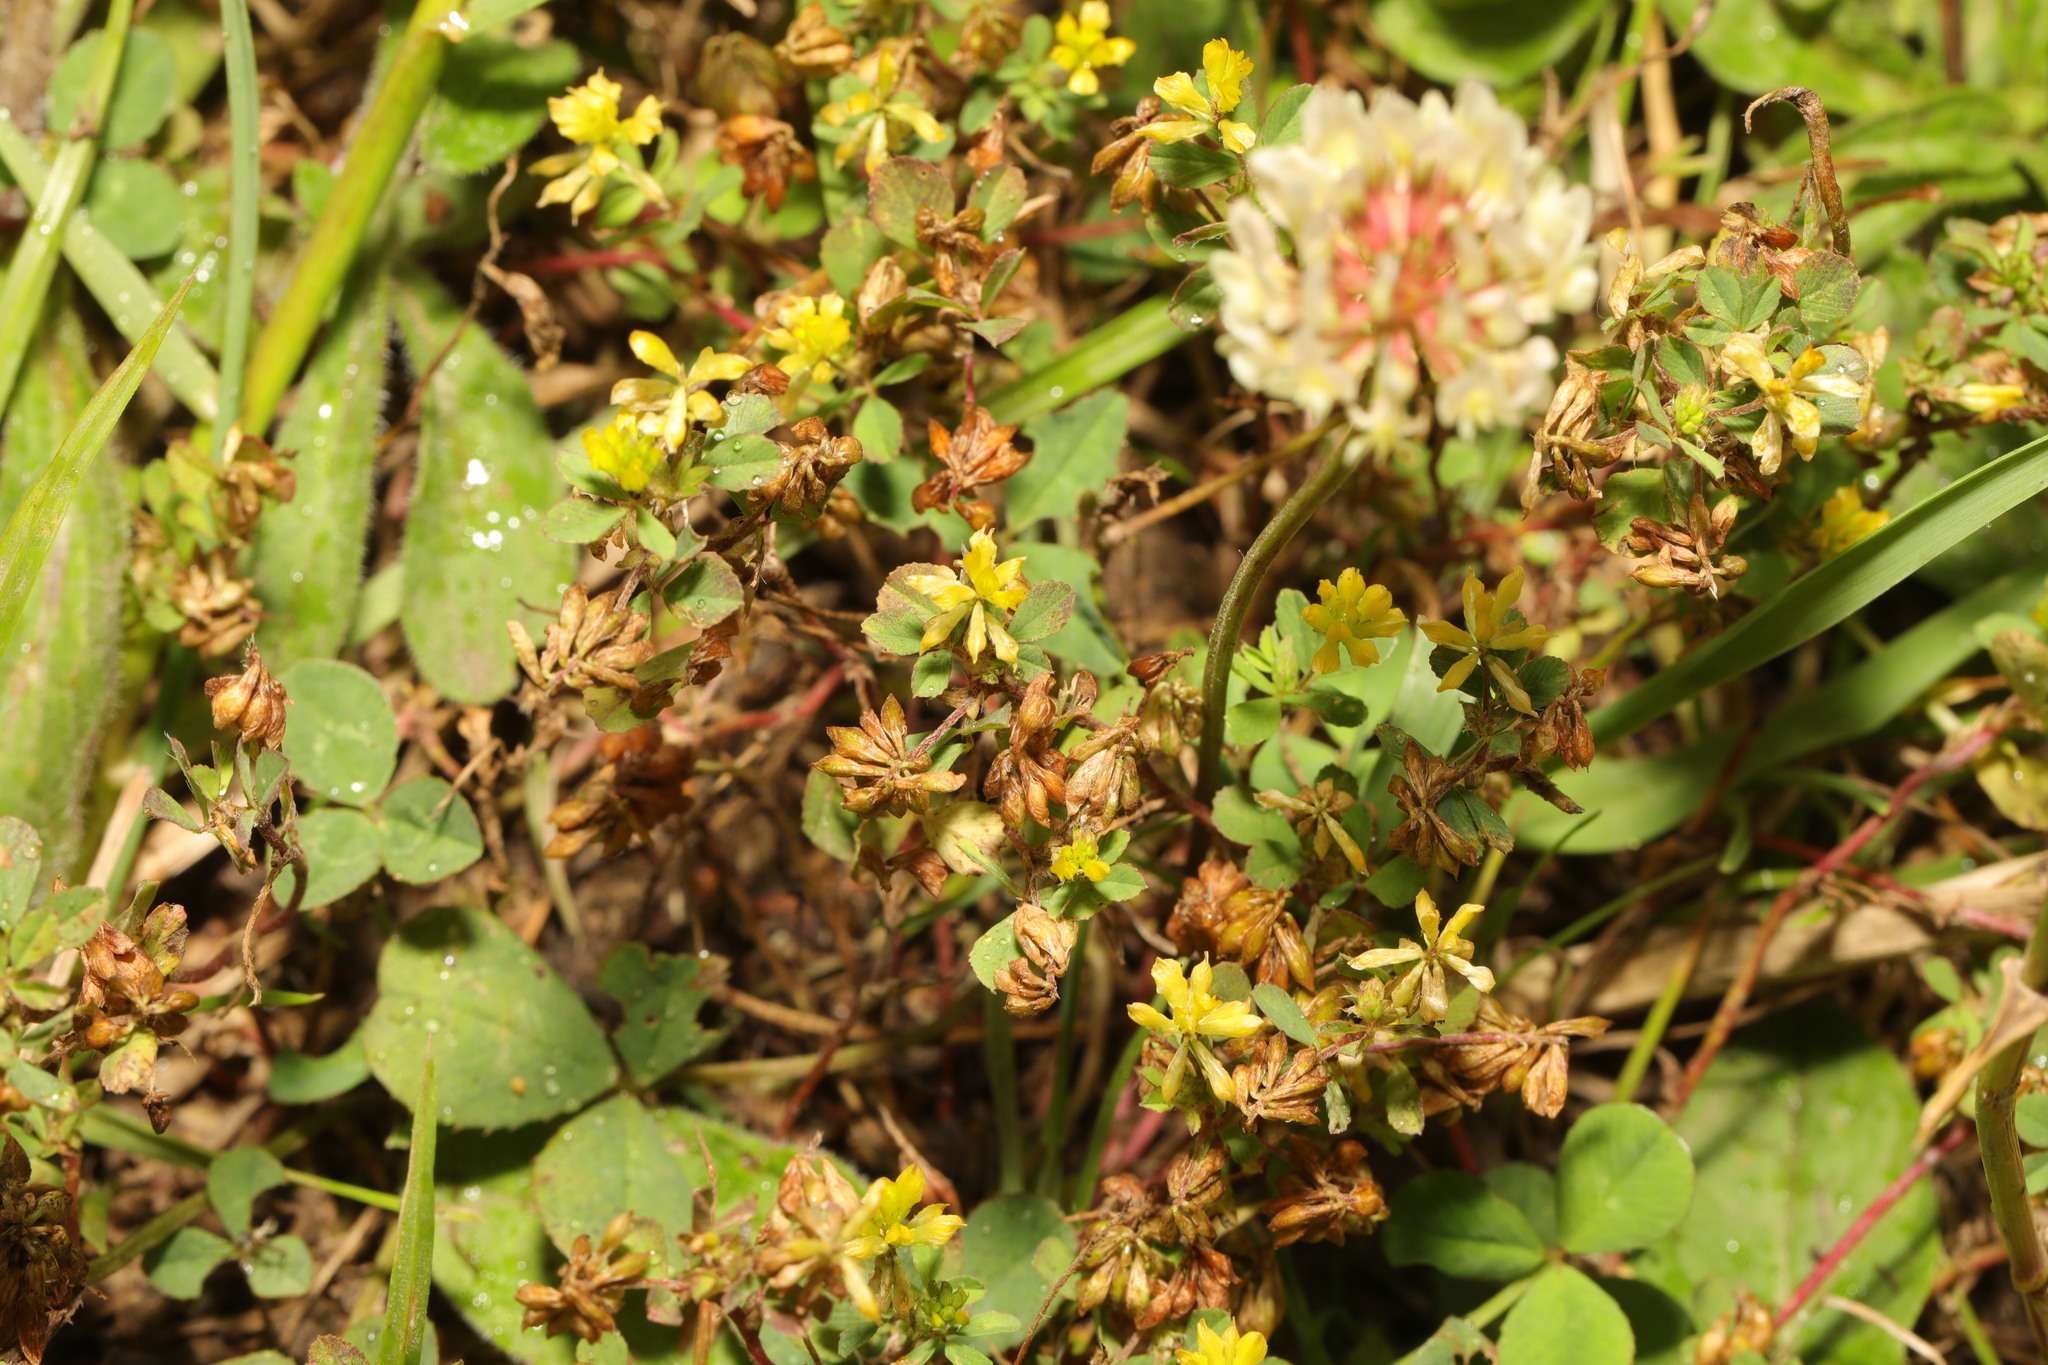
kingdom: Plantae
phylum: Tracheophyta
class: Magnoliopsida
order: Fabales
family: Fabaceae
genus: Trifolium
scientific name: Trifolium dubium
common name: Suckling clover
